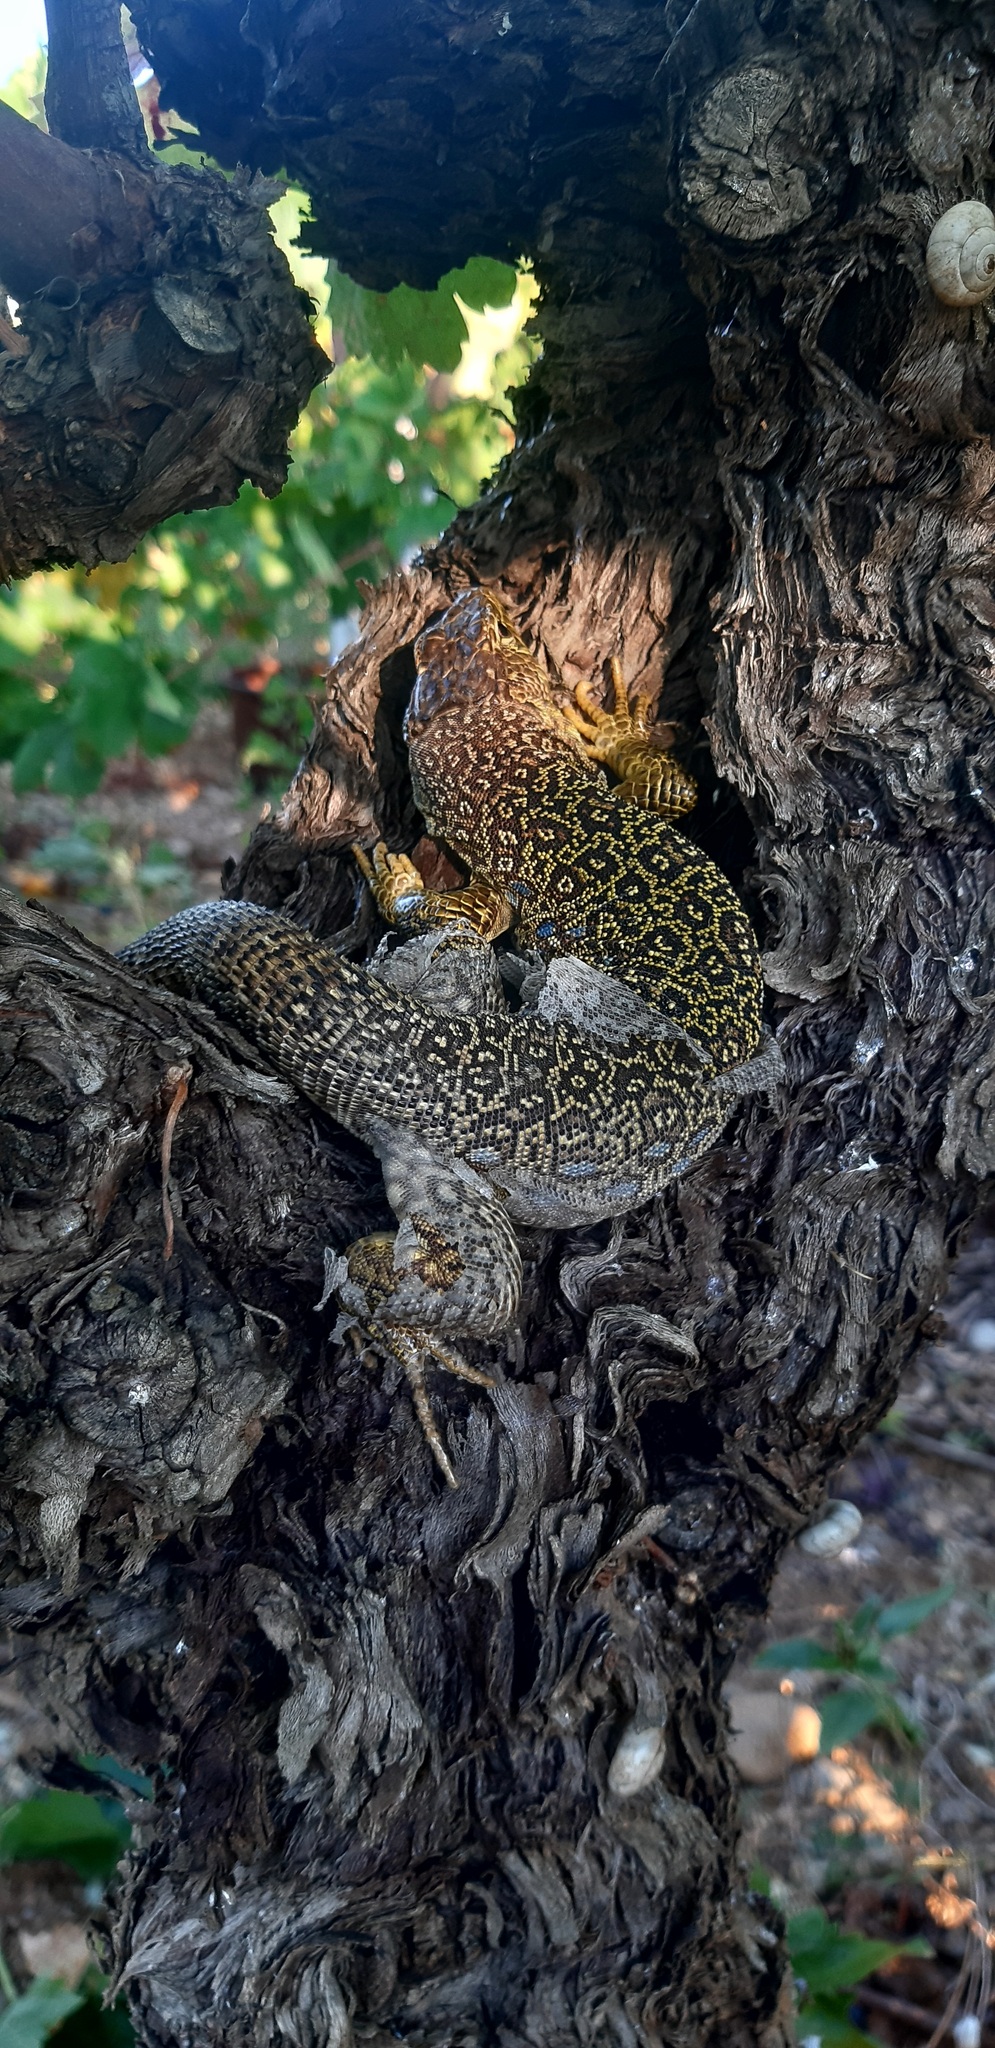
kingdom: Animalia
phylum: Chordata
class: Squamata
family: Lacertidae
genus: Timon
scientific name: Timon lepidus
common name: Ocellated lizard
